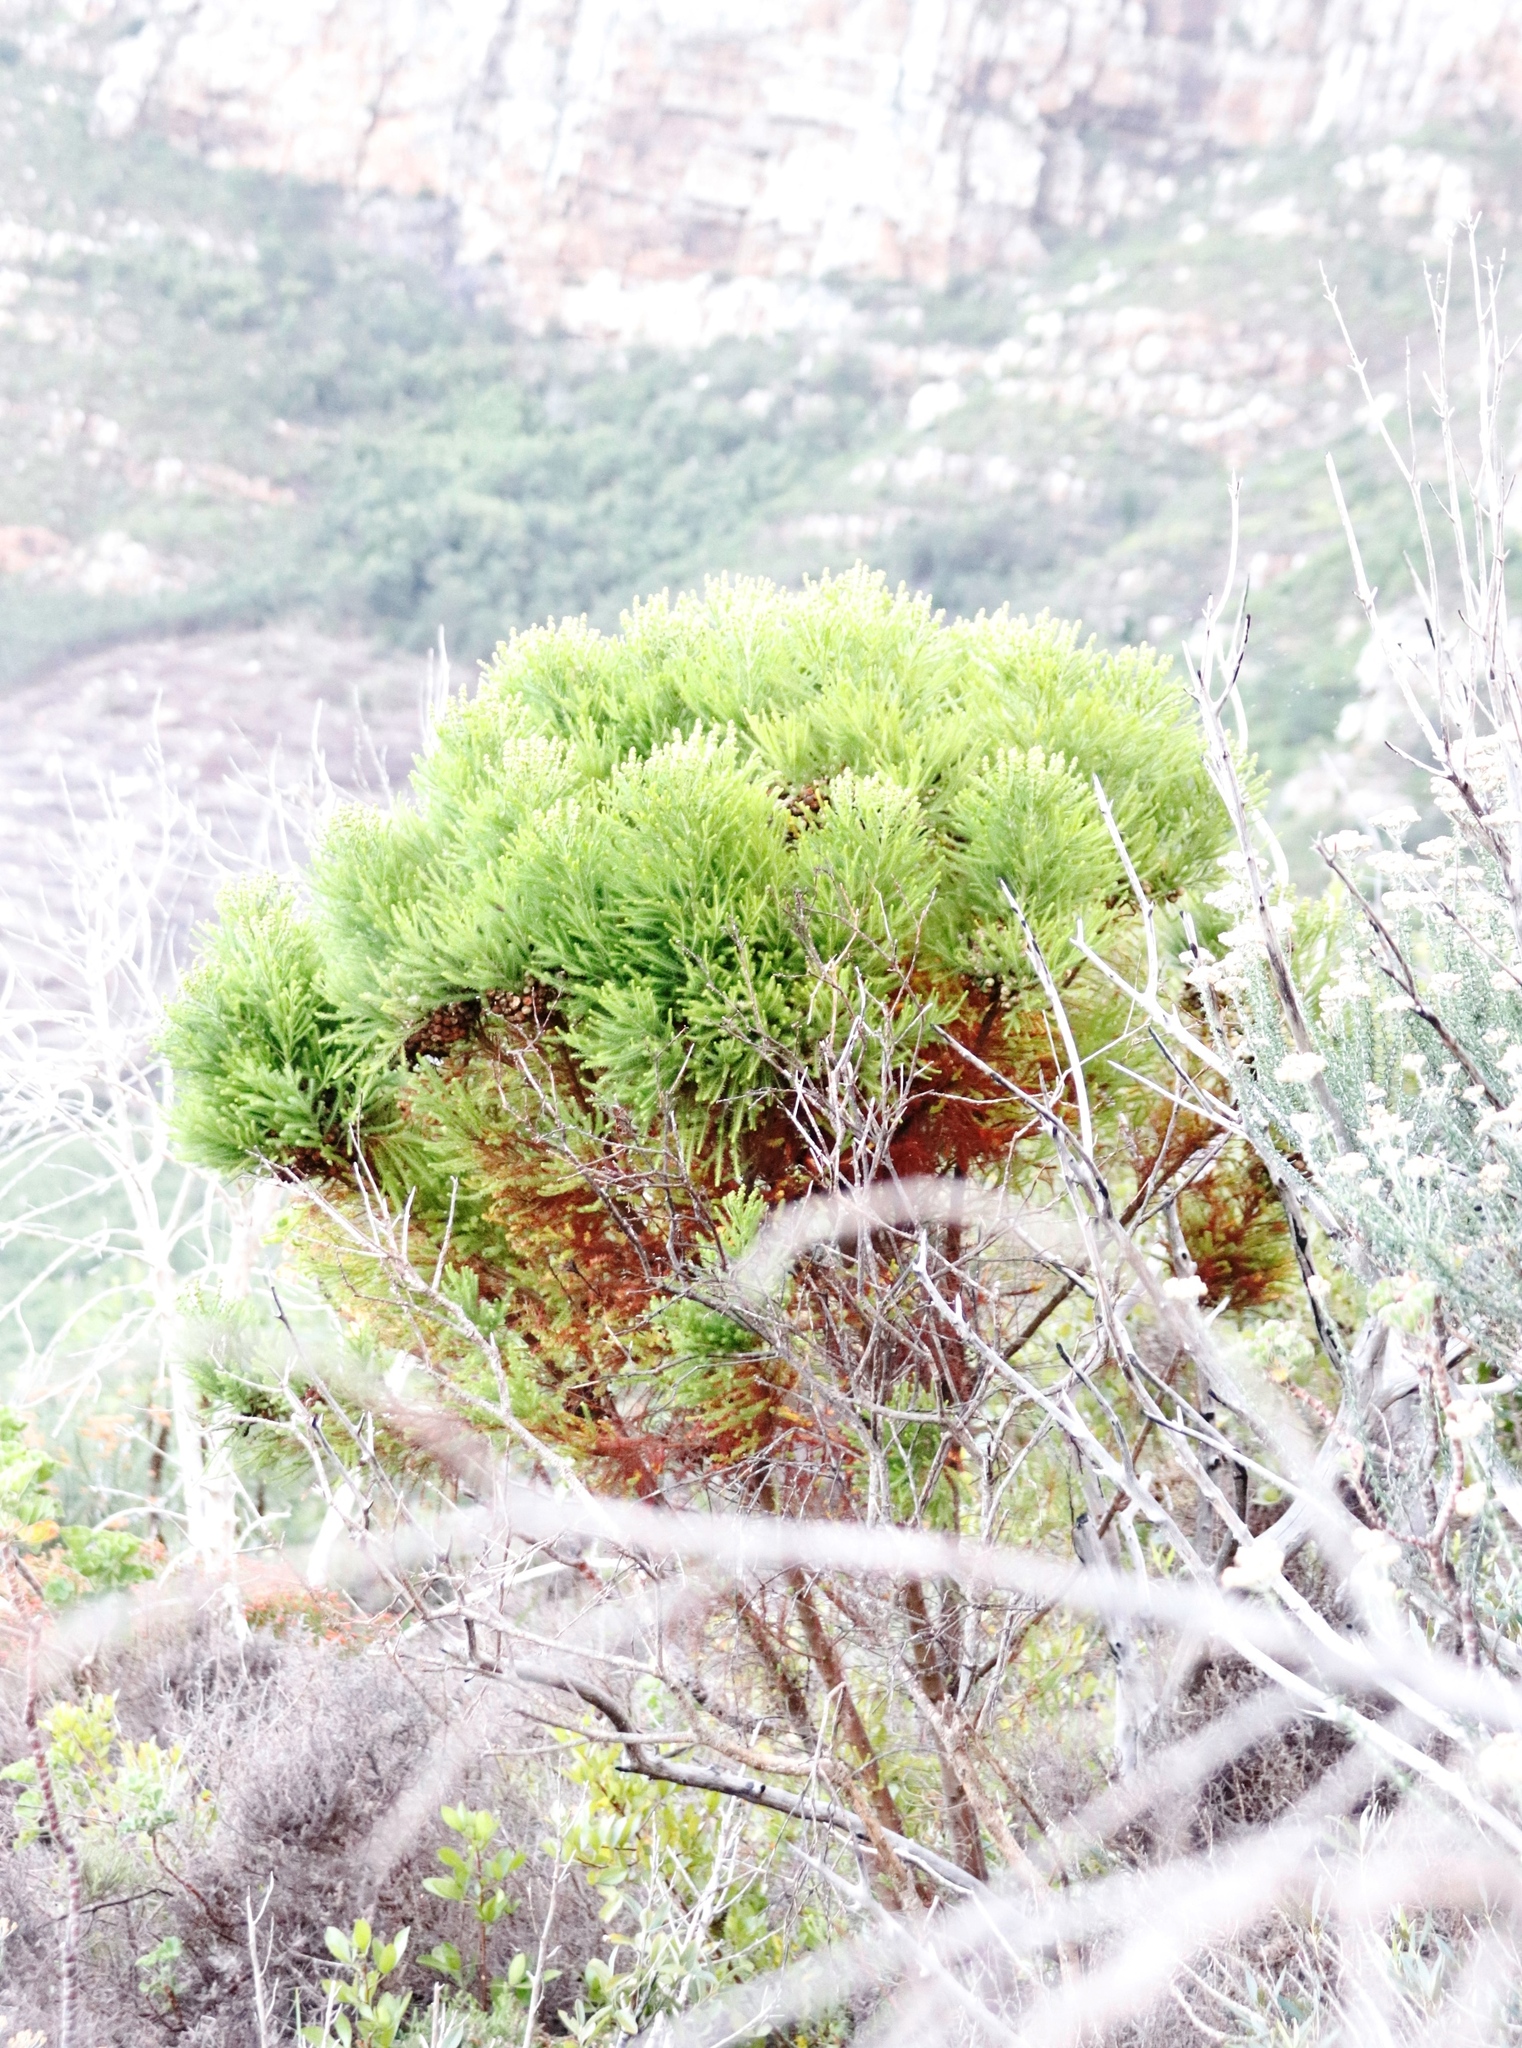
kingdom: Plantae
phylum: Tracheophyta
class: Magnoliopsida
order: Bruniales
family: Bruniaceae
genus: Berzelia
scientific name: Berzelia lanuginosa
